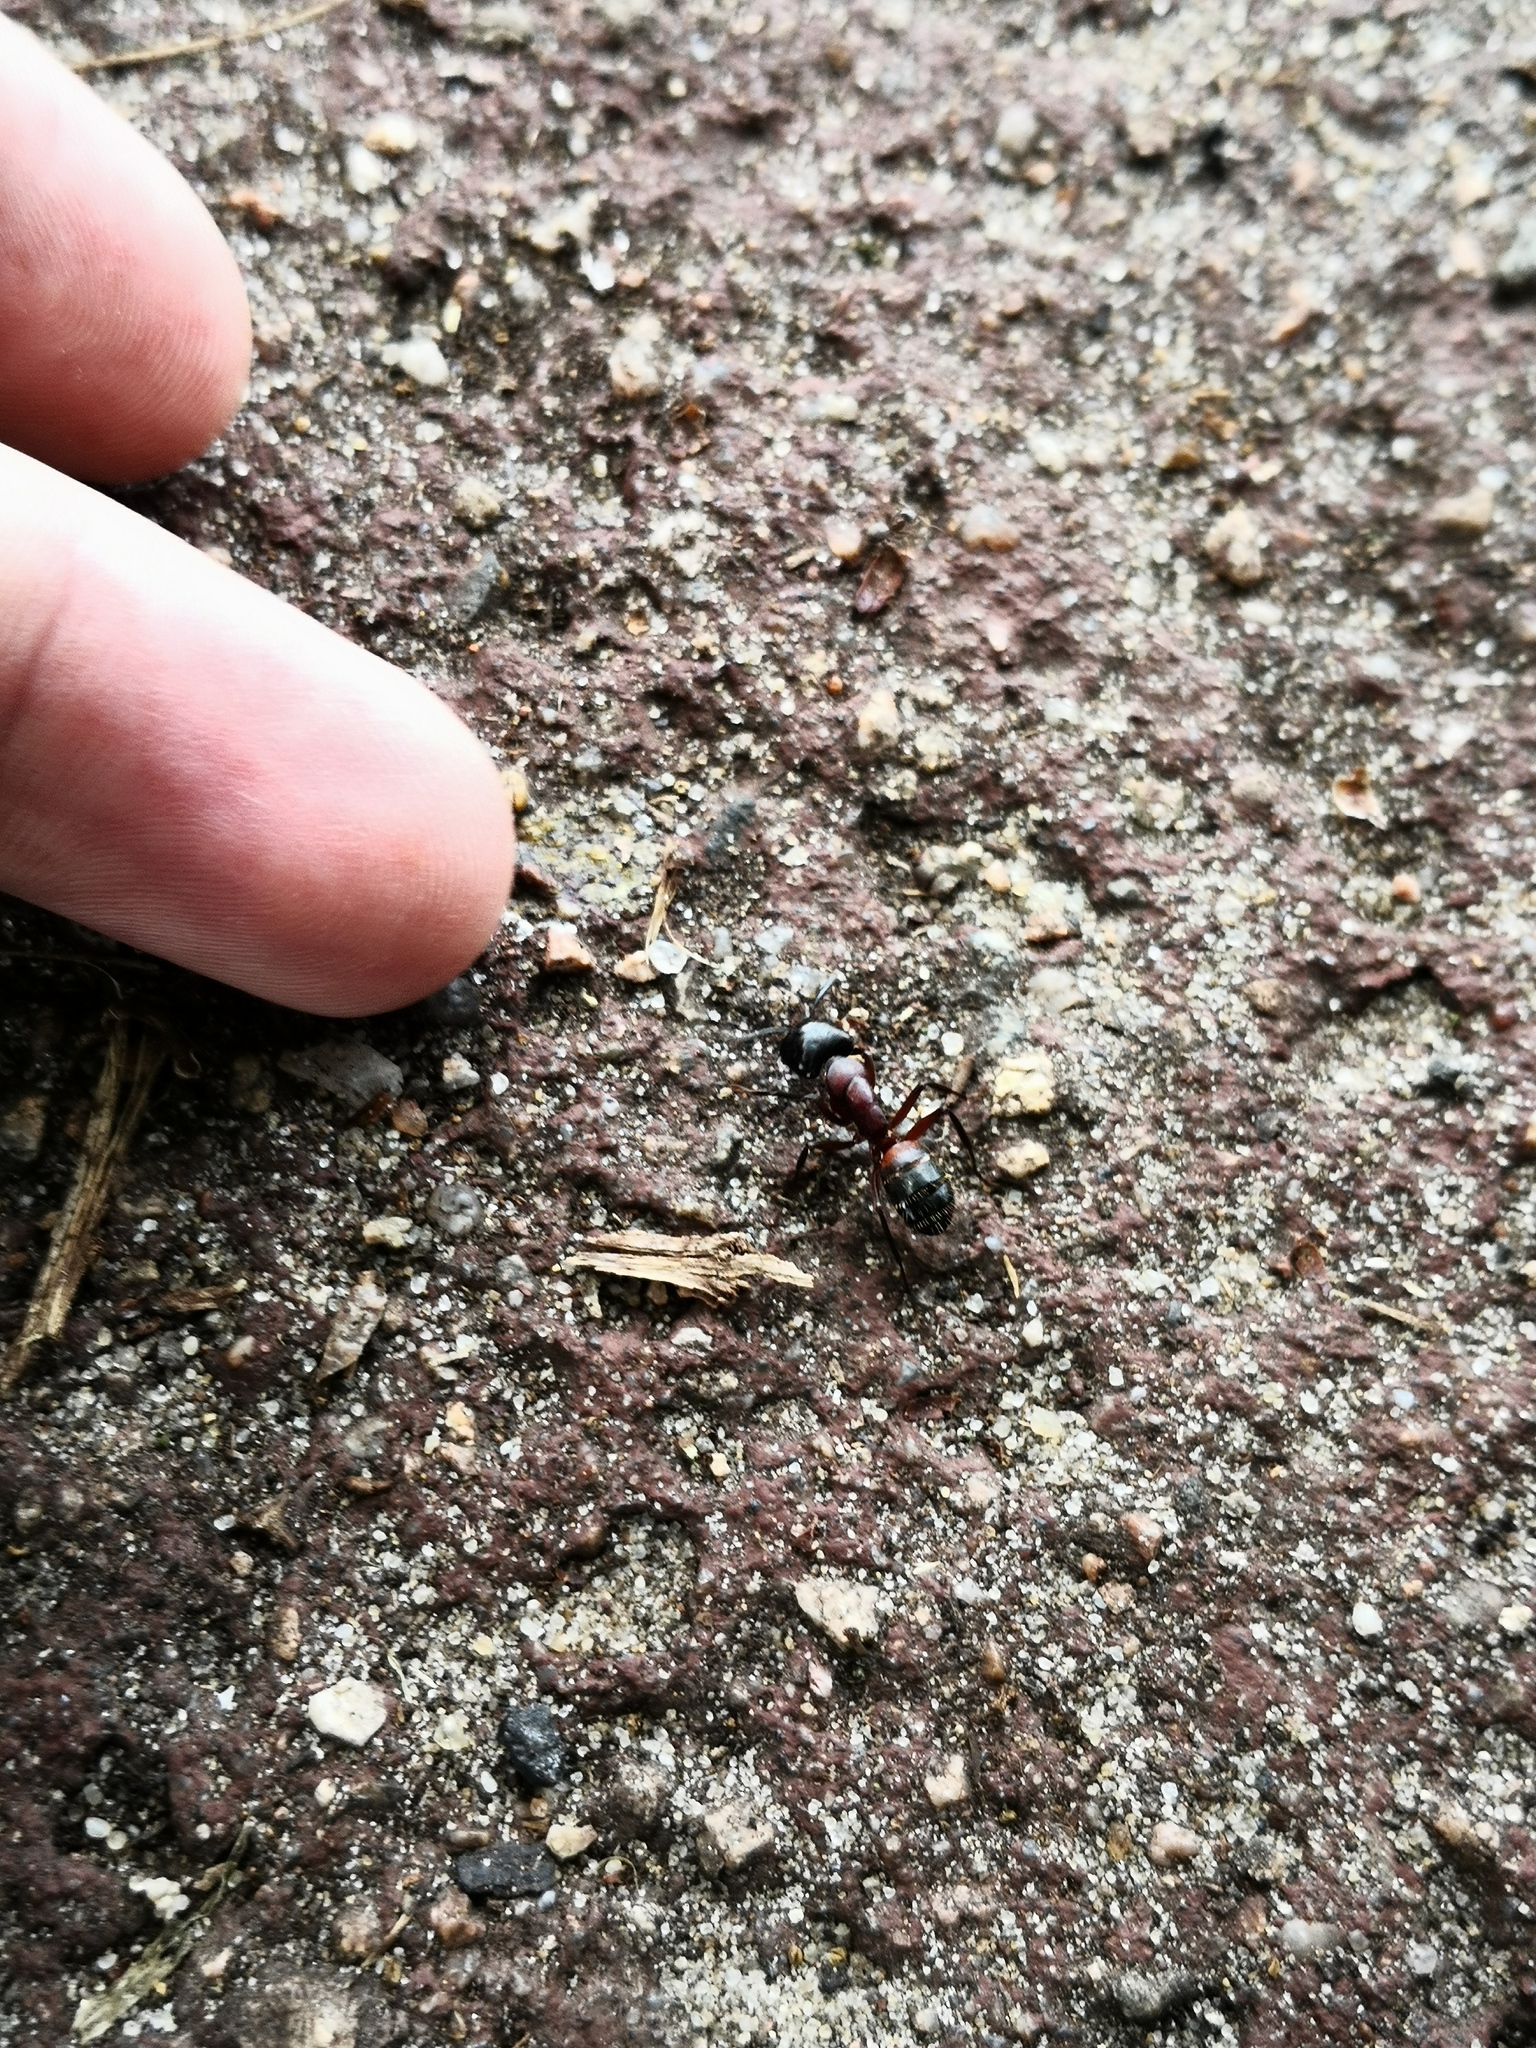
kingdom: Animalia
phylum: Arthropoda
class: Insecta
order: Hymenoptera
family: Formicidae
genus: Camponotus
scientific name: Camponotus ligniperdus
